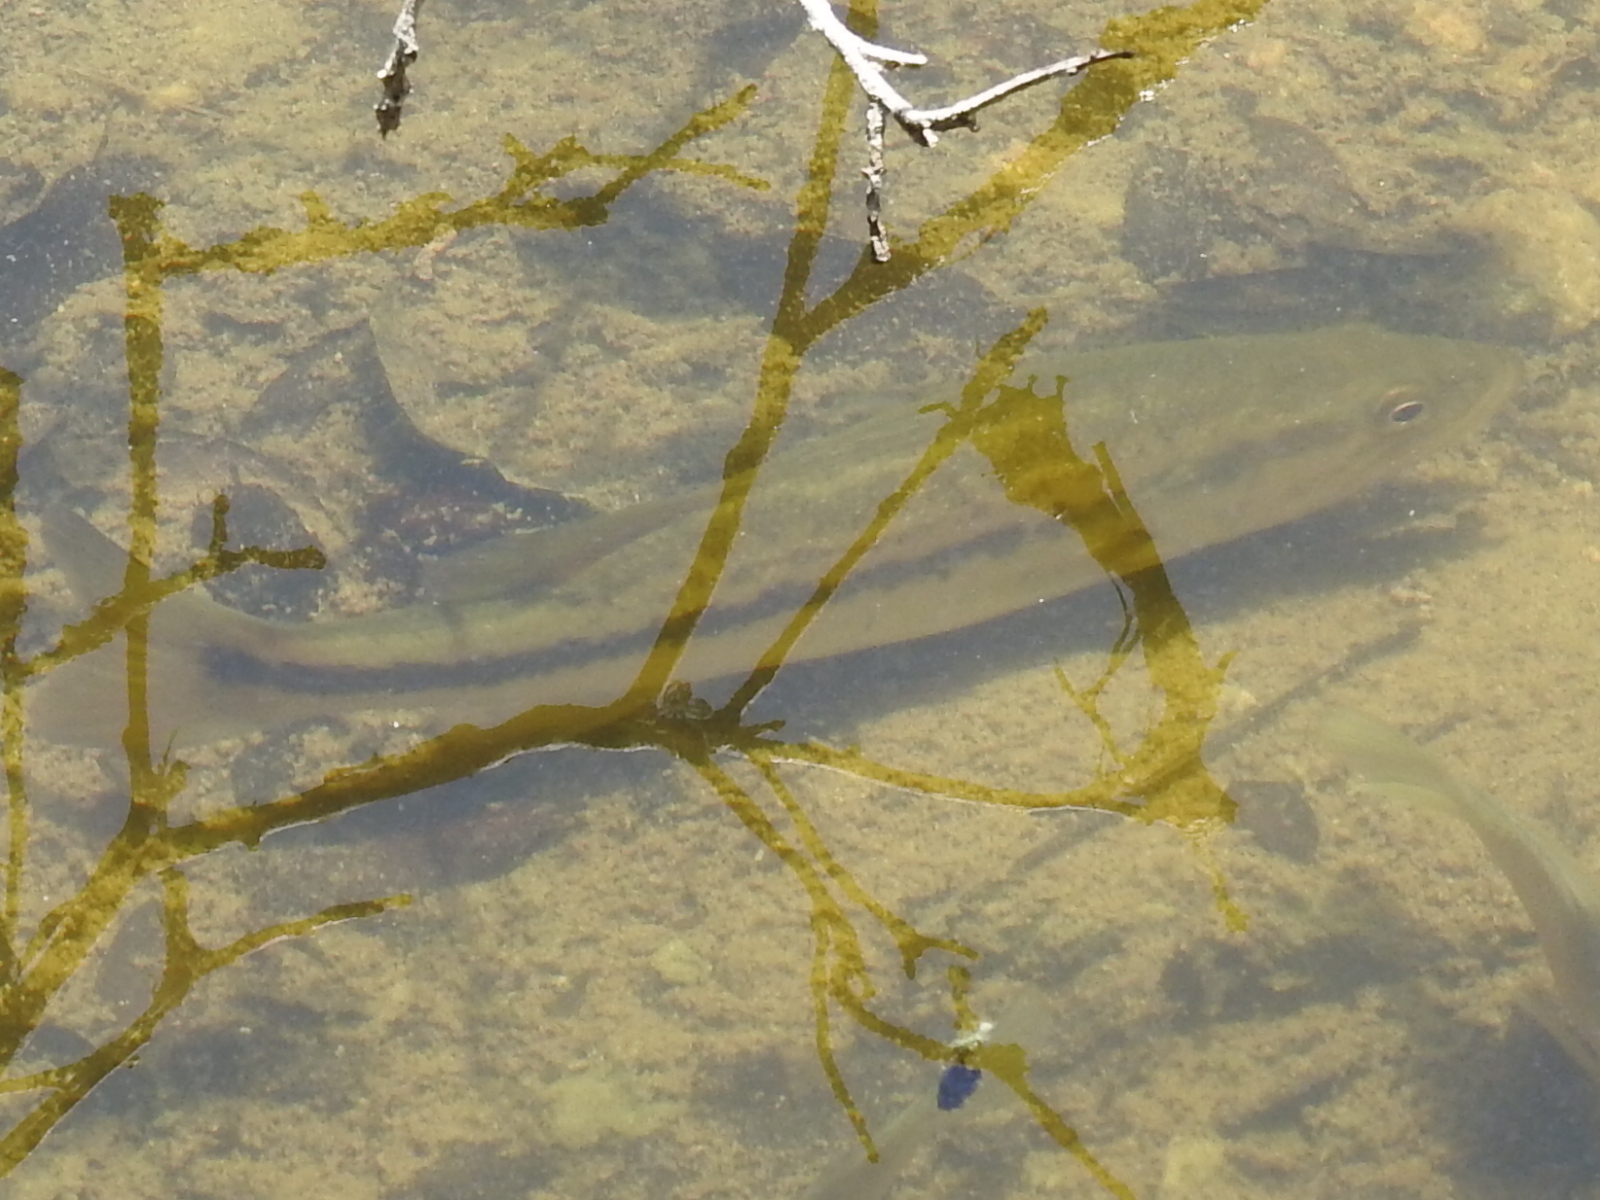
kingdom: Animalia
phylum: Chordata
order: Perciformes
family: Centrarchidae
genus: Micropterus
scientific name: Micropterus
